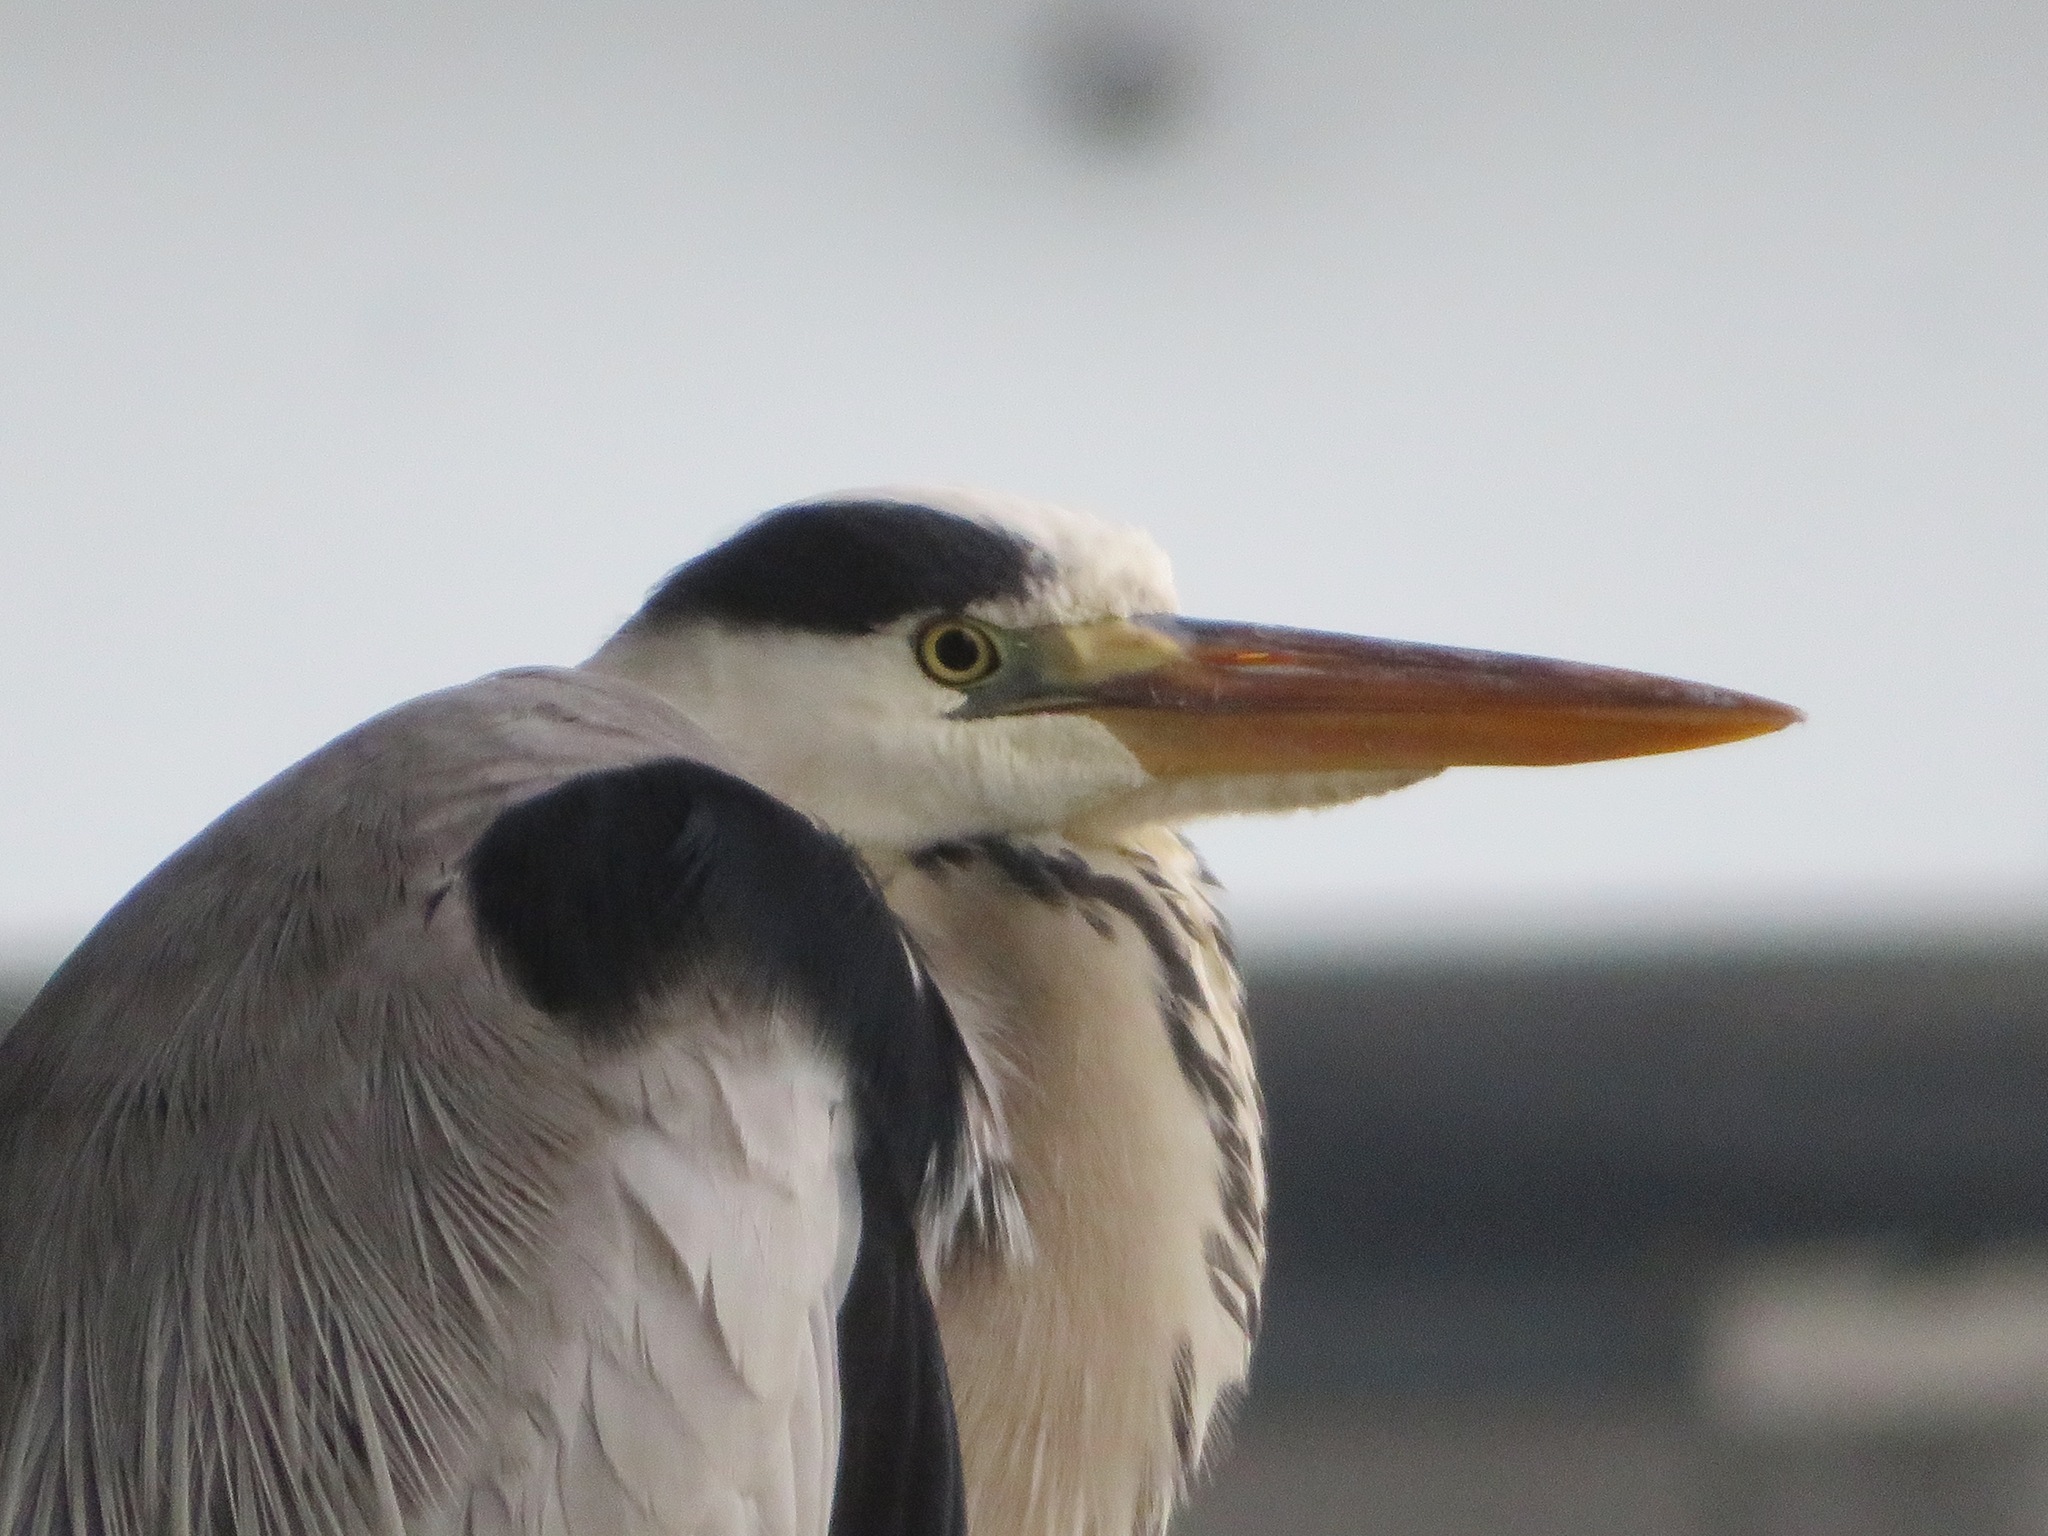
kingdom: Animalia
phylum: Chordata
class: Aves
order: Pelecaniformes
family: Ardeidae
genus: Ardea
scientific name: Ardea cinerea
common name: Grey heron
